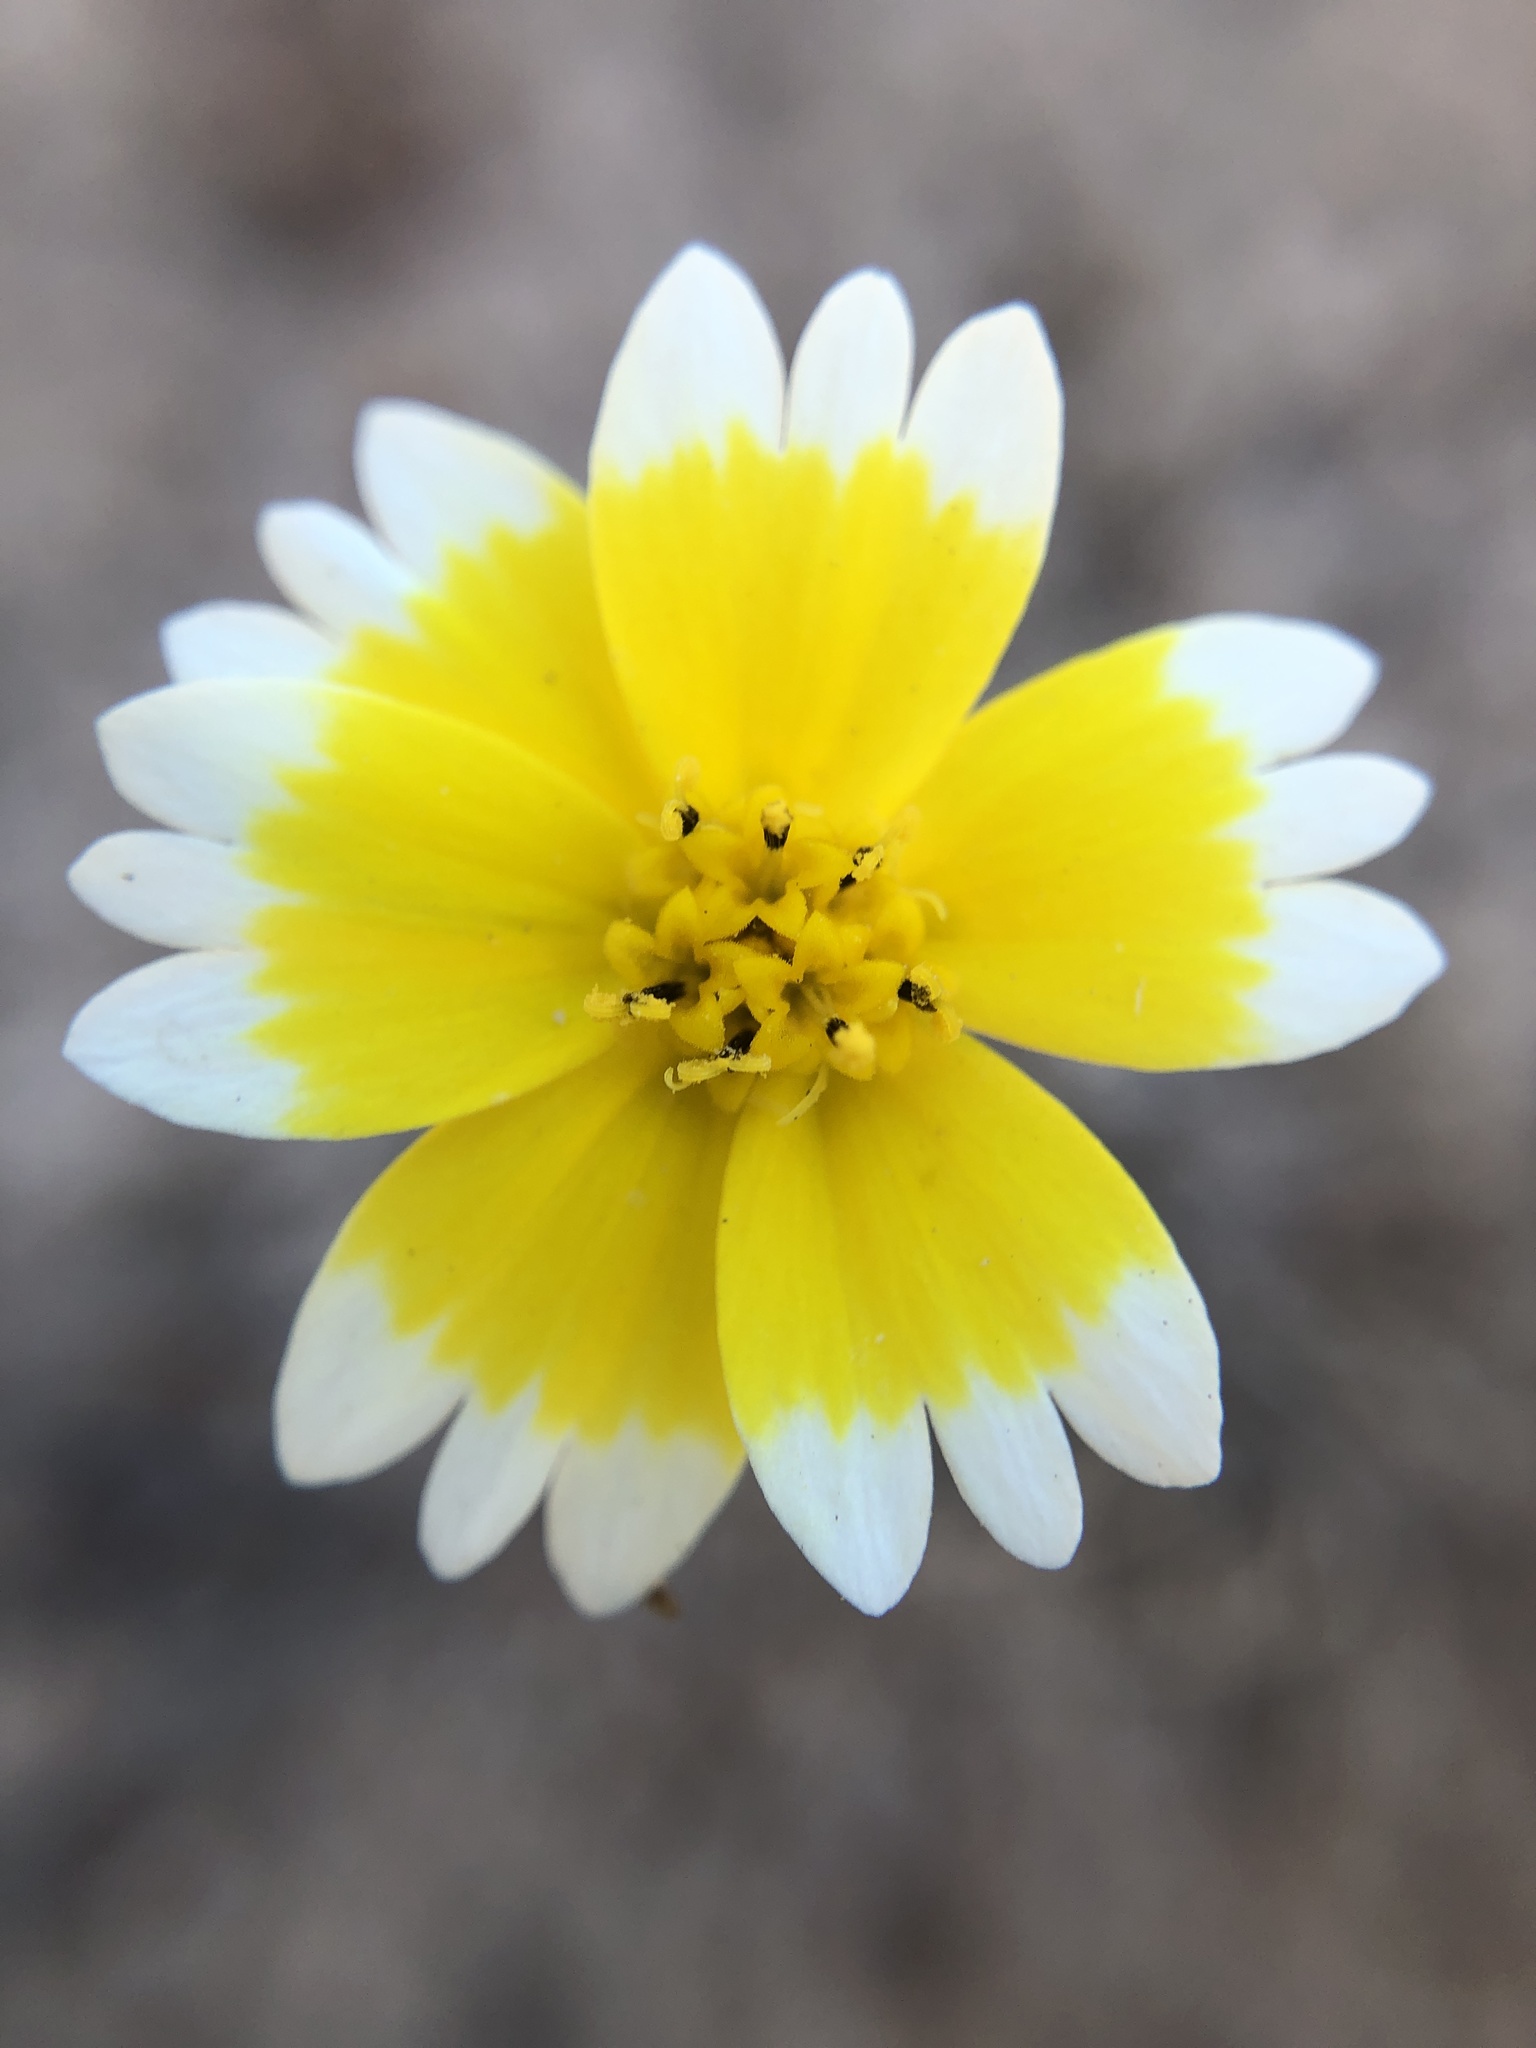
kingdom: Plantae
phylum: Tracheophyta
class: Magnoliopsida
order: Asterales
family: Asteraceae
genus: Layia
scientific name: Layia platyglossa
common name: Tidy-tips
